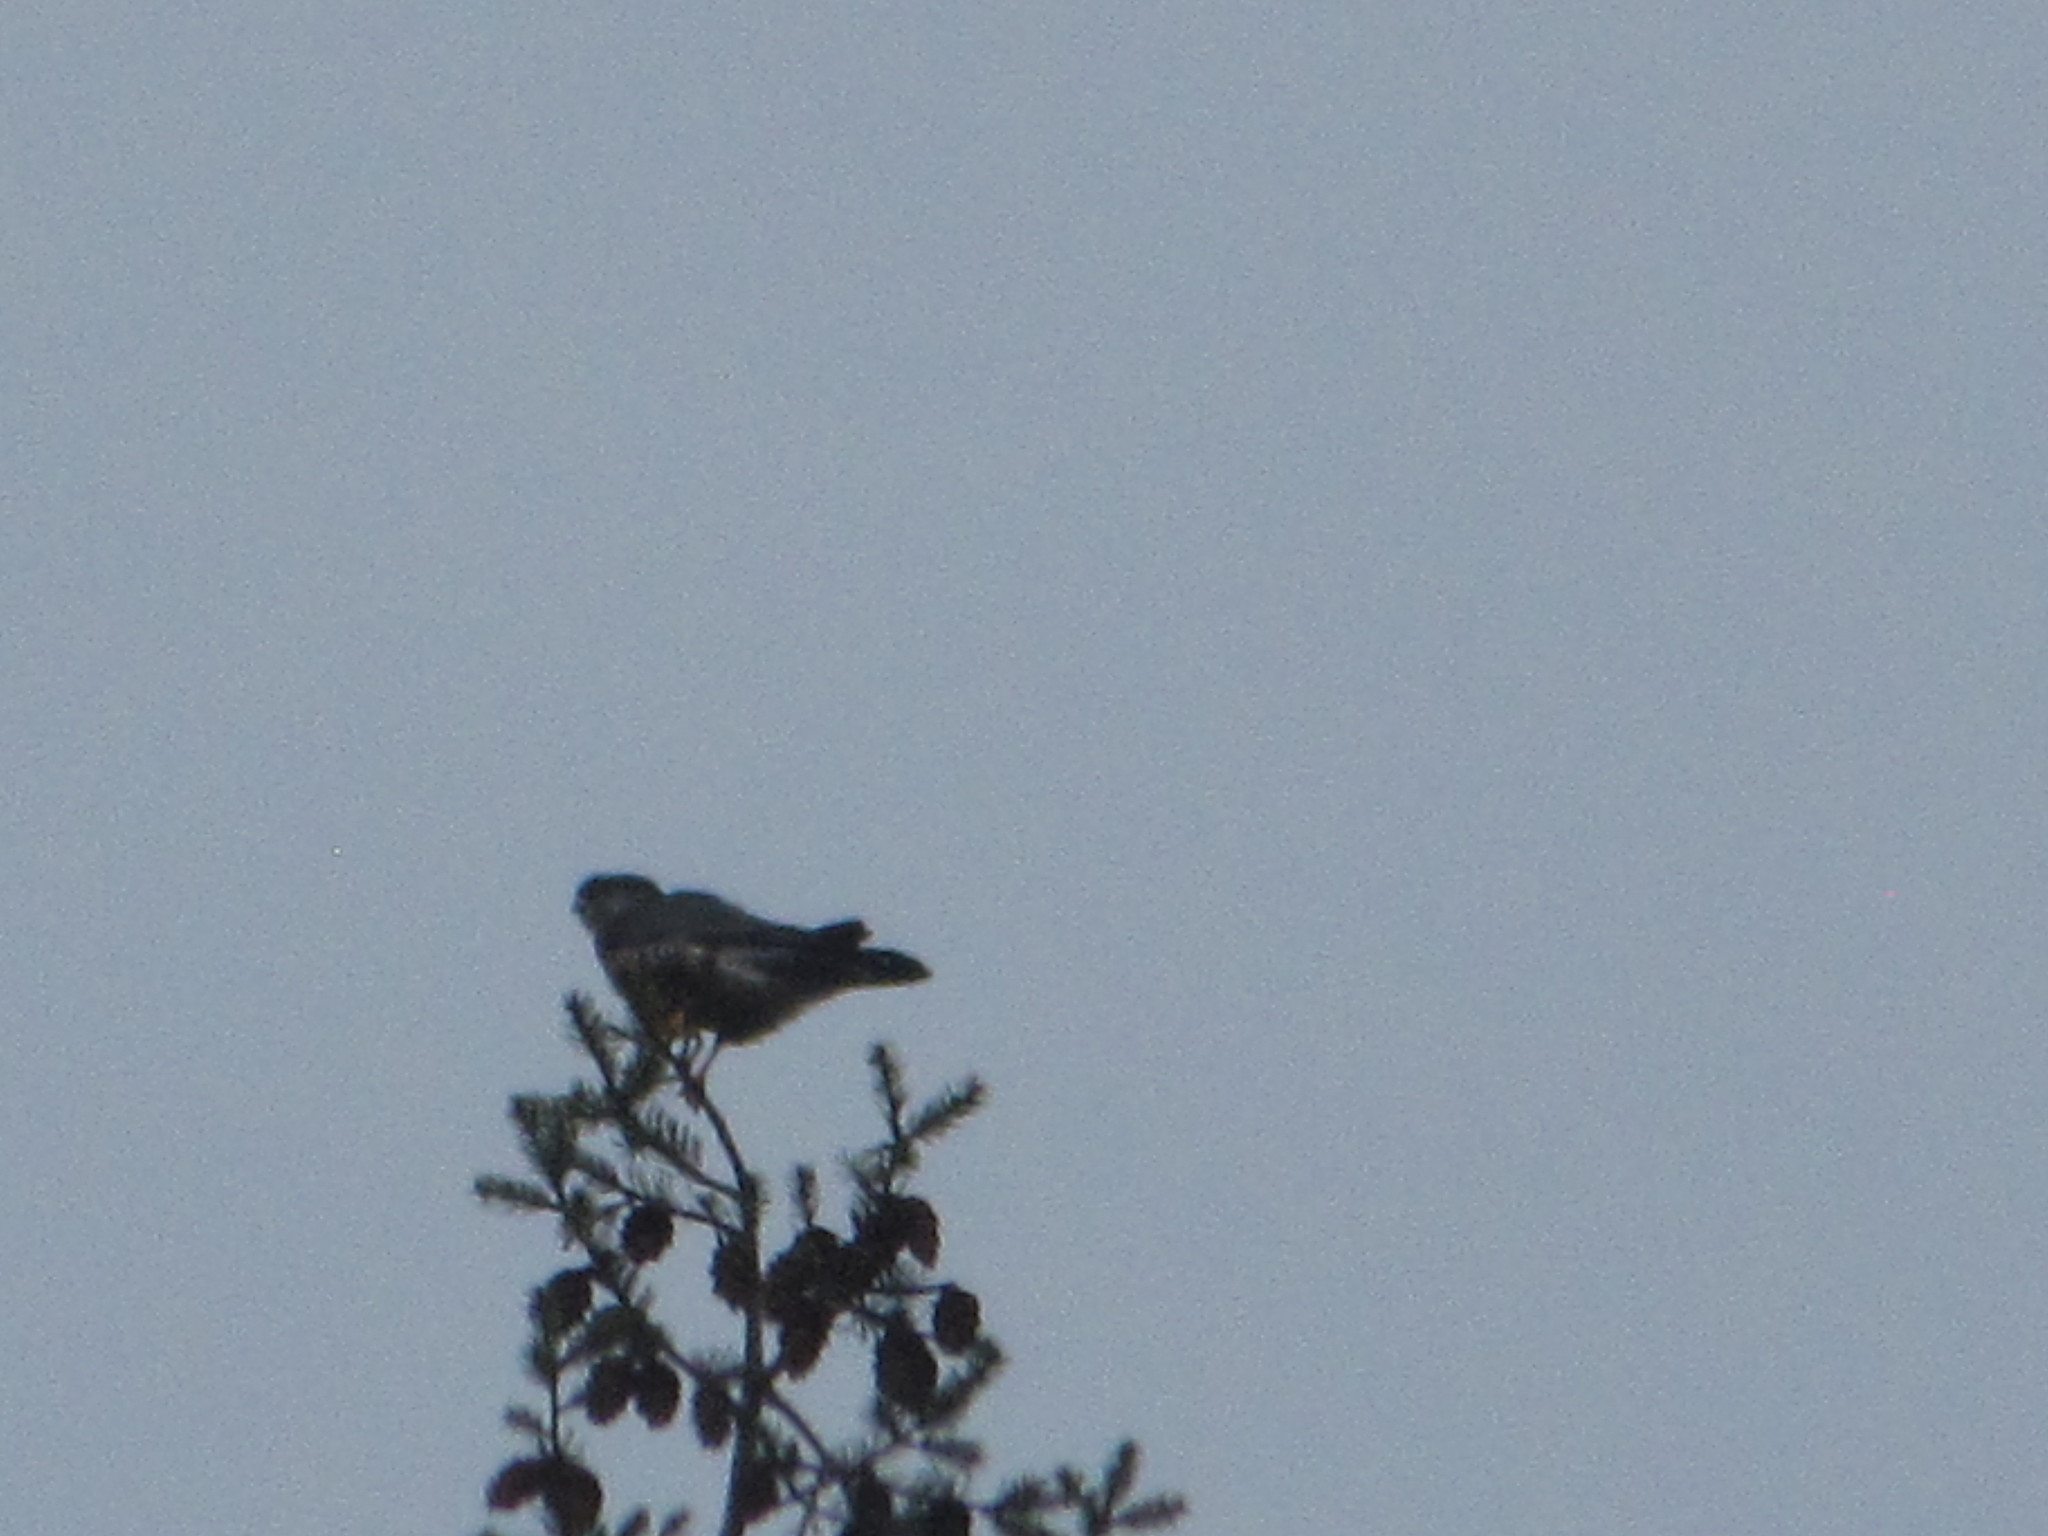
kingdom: Animalia
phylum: Chordata
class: Aves
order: Falconiformes
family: Falconidae
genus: Falco
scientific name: Falco columbarius
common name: Merlin
